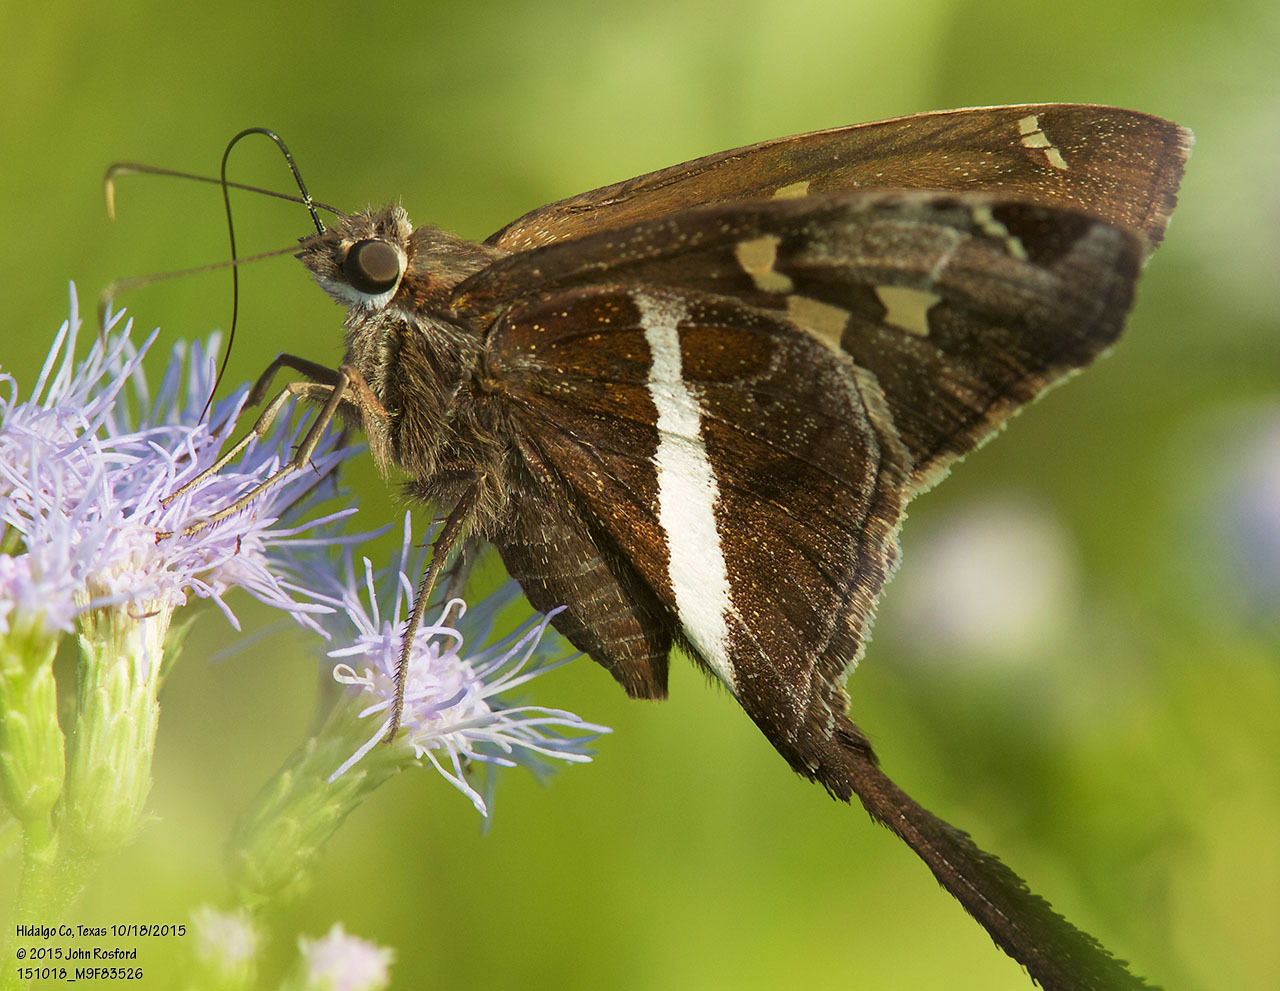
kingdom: Animalia
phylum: Arthropoda
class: Insecta
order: Lepidoptera
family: Hesperiidae
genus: Chioides
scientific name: Chioides catillus
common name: Silverbanded skipper
